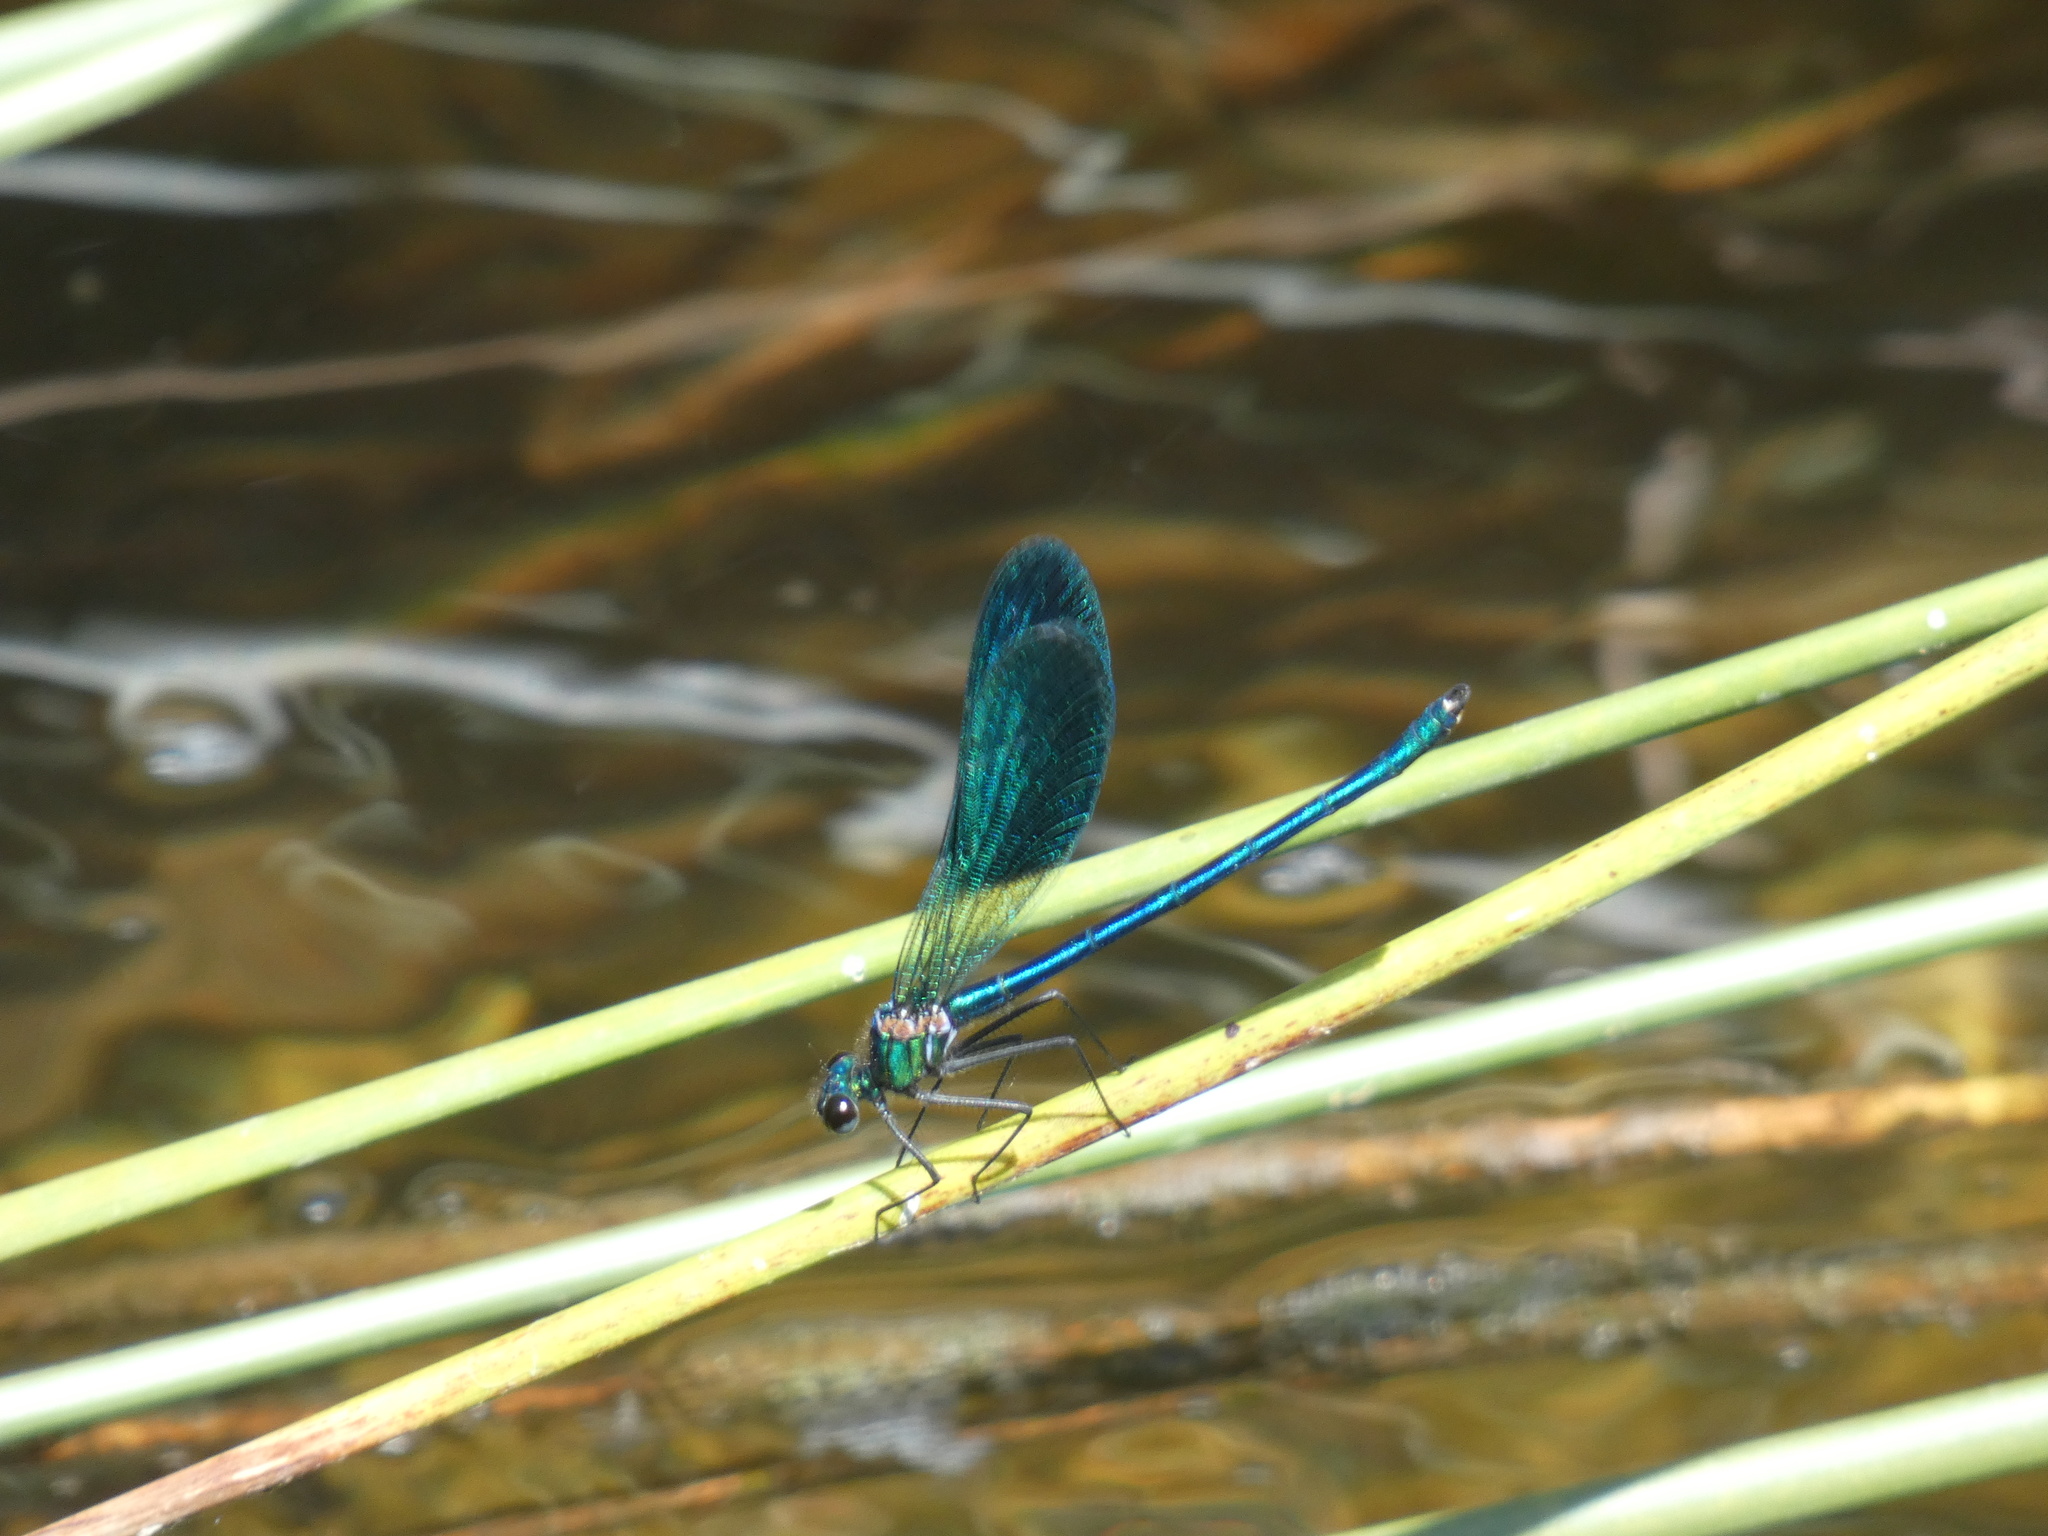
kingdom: Animalia
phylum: Arthropoda
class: Insecta
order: Odonata
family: Calopterygidae
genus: Calopteryx
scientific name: Calopteryx xanthostoma
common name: Western demoiselle
